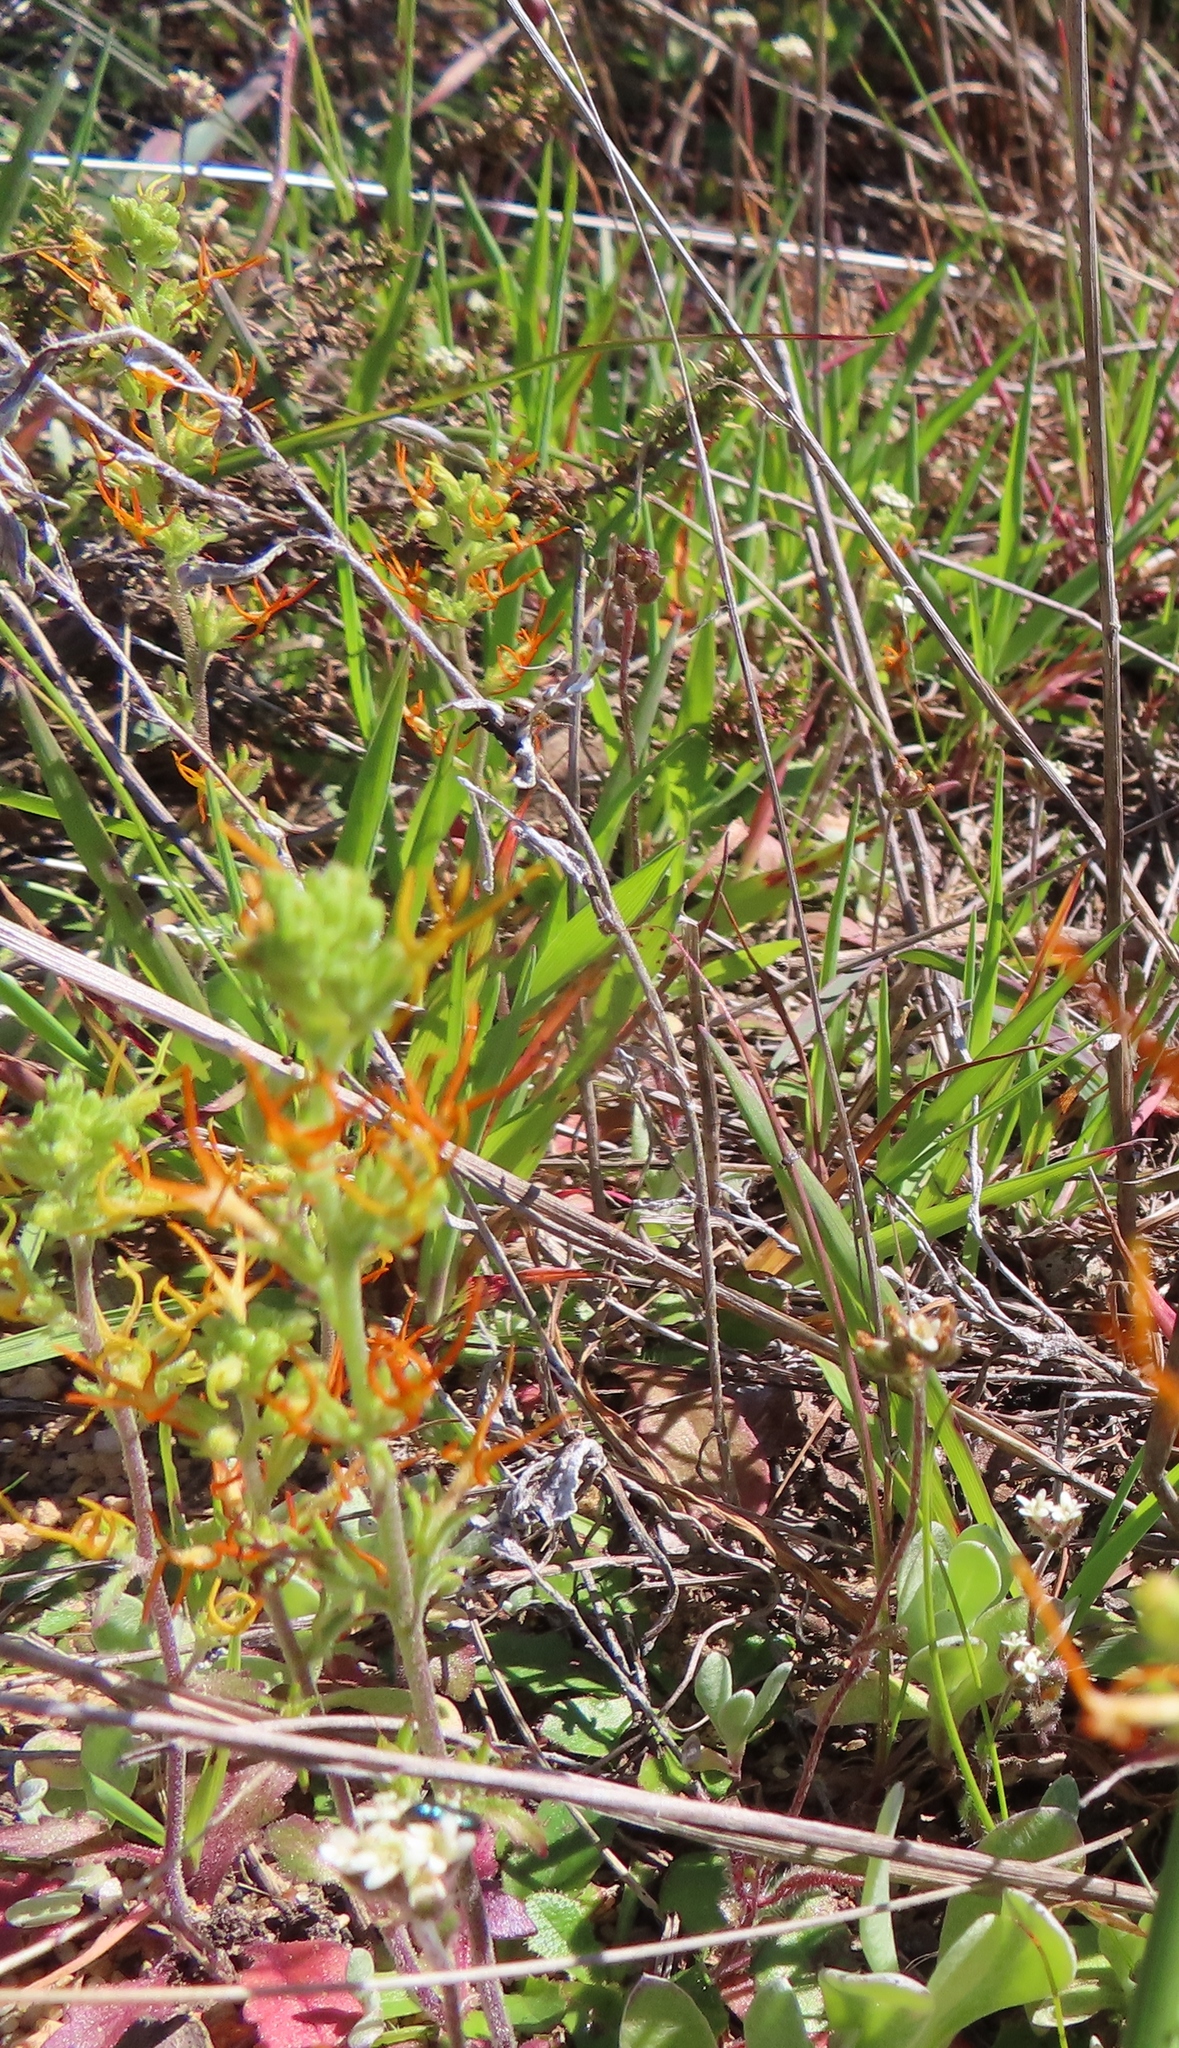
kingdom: Plantae
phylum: Tracheophyta
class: Magnoliopsida
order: Lamiales
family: Scrophulariaceae
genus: Manulea
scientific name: Manulea cheiranthus
